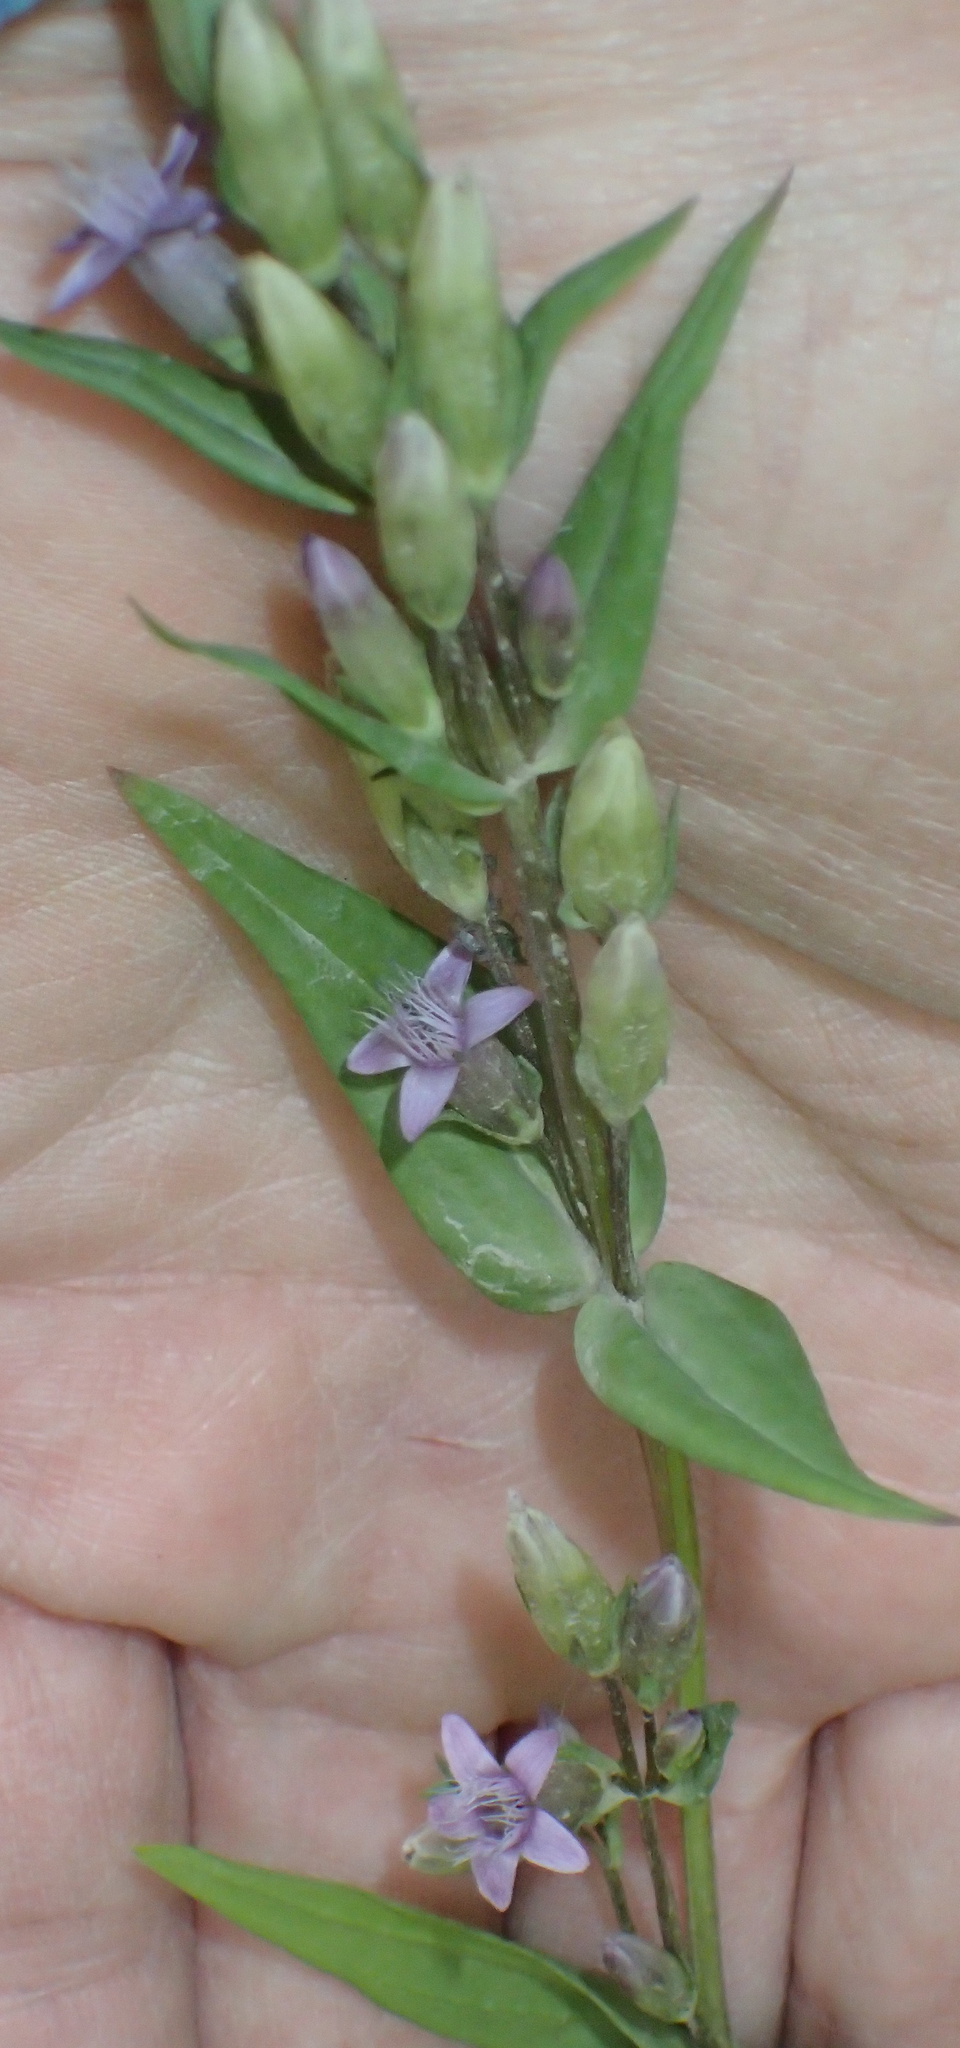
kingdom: Plantae
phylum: Tracheophyta
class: Magnoliopsida
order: Gentianales
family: Gentianaceae
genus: Gentianella
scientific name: Gentianella amarella
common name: Autumn gentian
